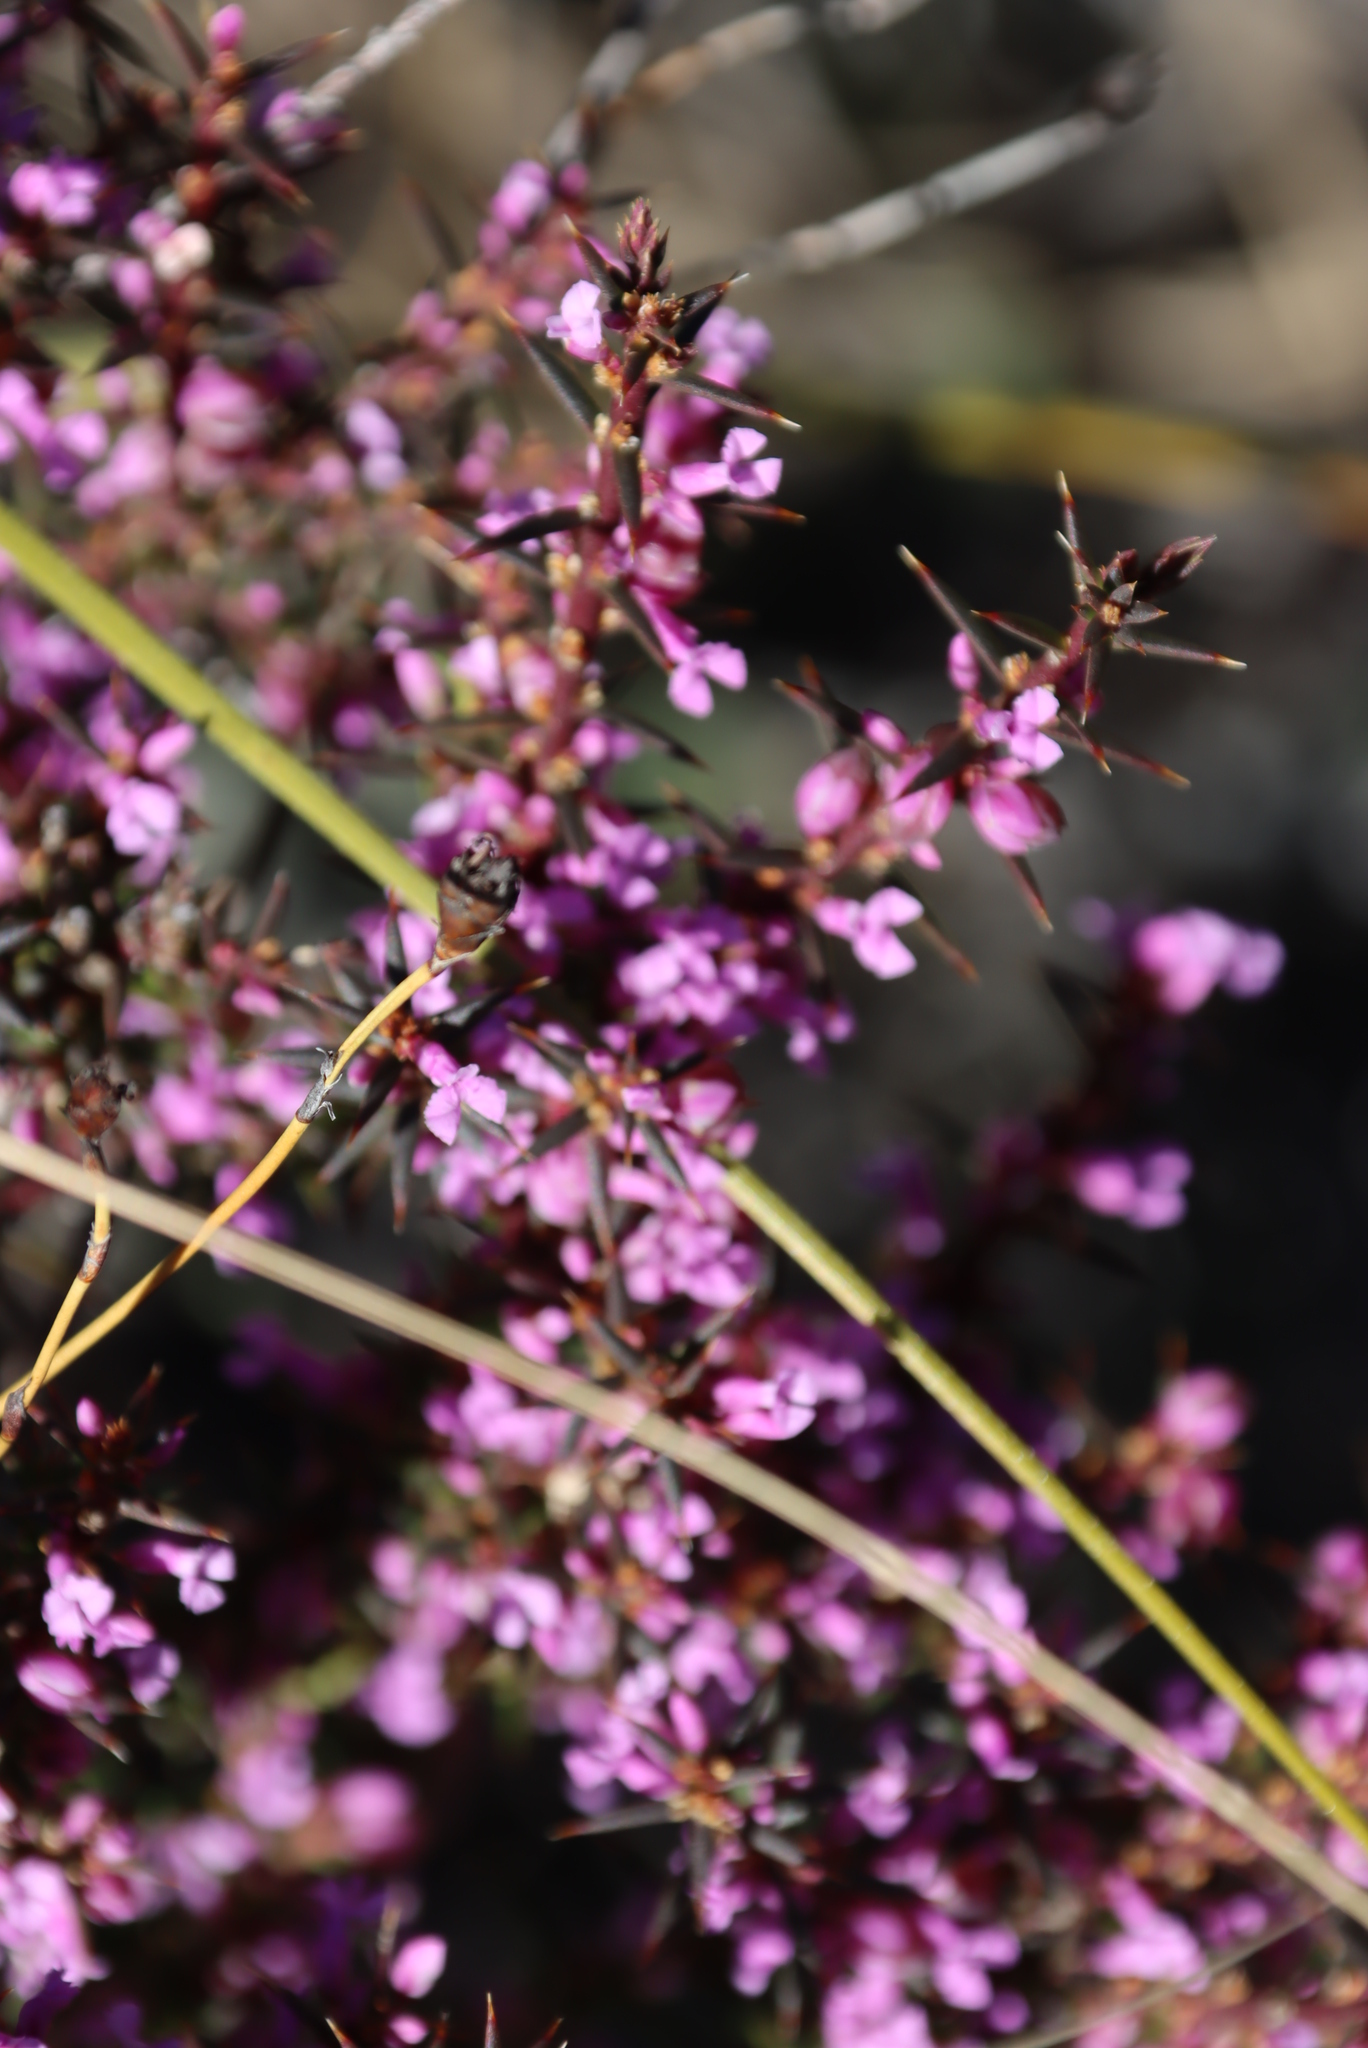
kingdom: Plantae
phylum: Tracheophyta
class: Magnoliopsida
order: Fabales
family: Polygalaceae
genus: Muraltia
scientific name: Muraltia juniperifolia
